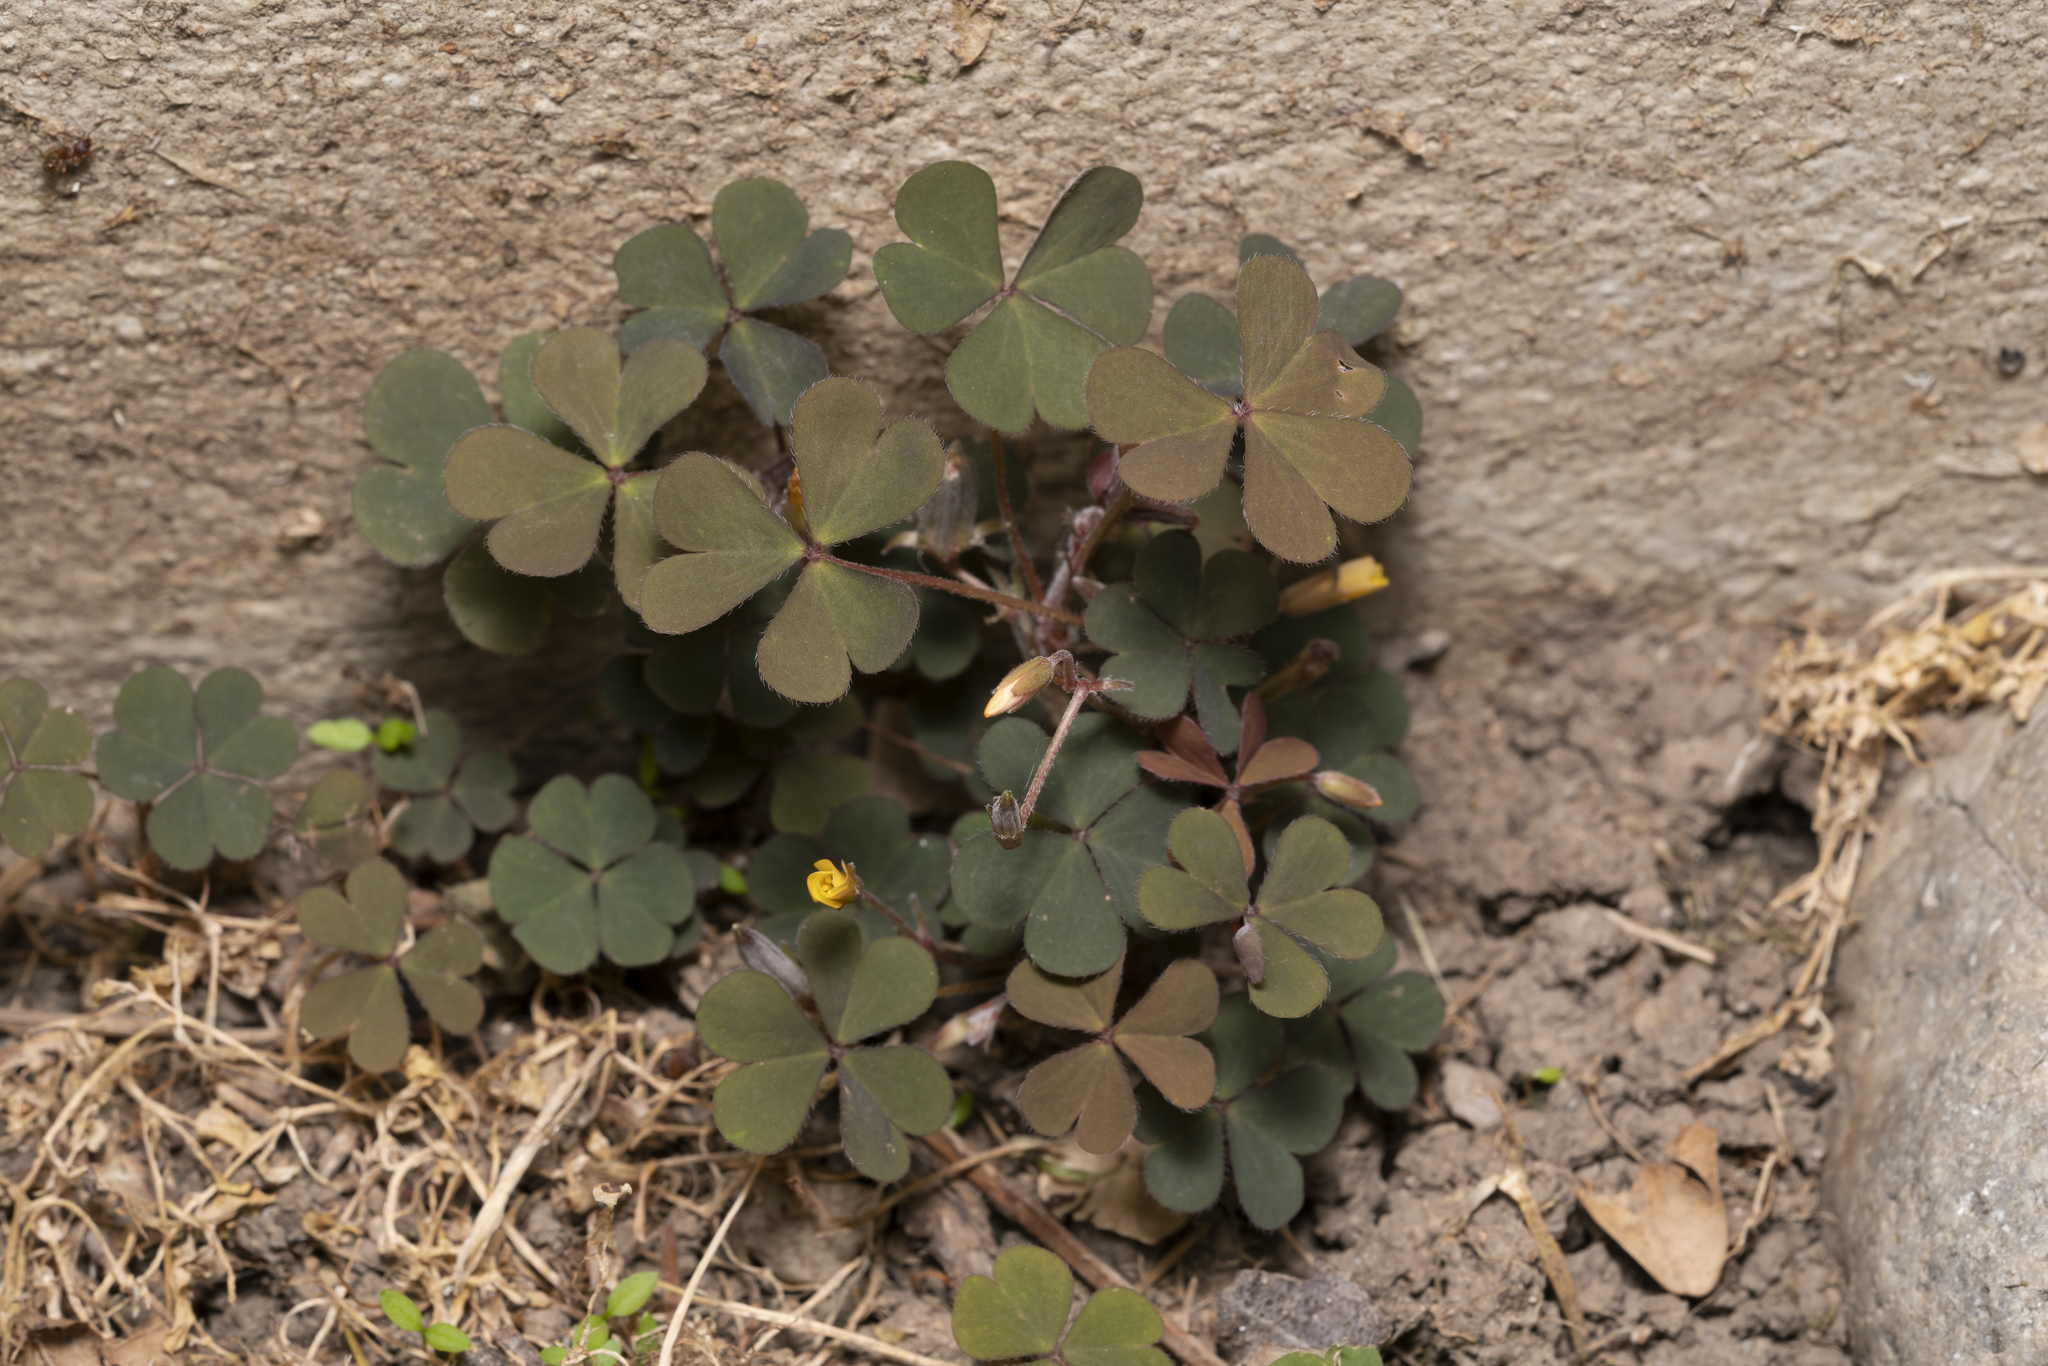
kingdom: Plantae
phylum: Tracheophyta
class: Magnoliopsida
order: Oxalidales
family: Oxalidaceae
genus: Oxalis
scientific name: Oxalis corniculata
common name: Procumbent yellow-sorrel
